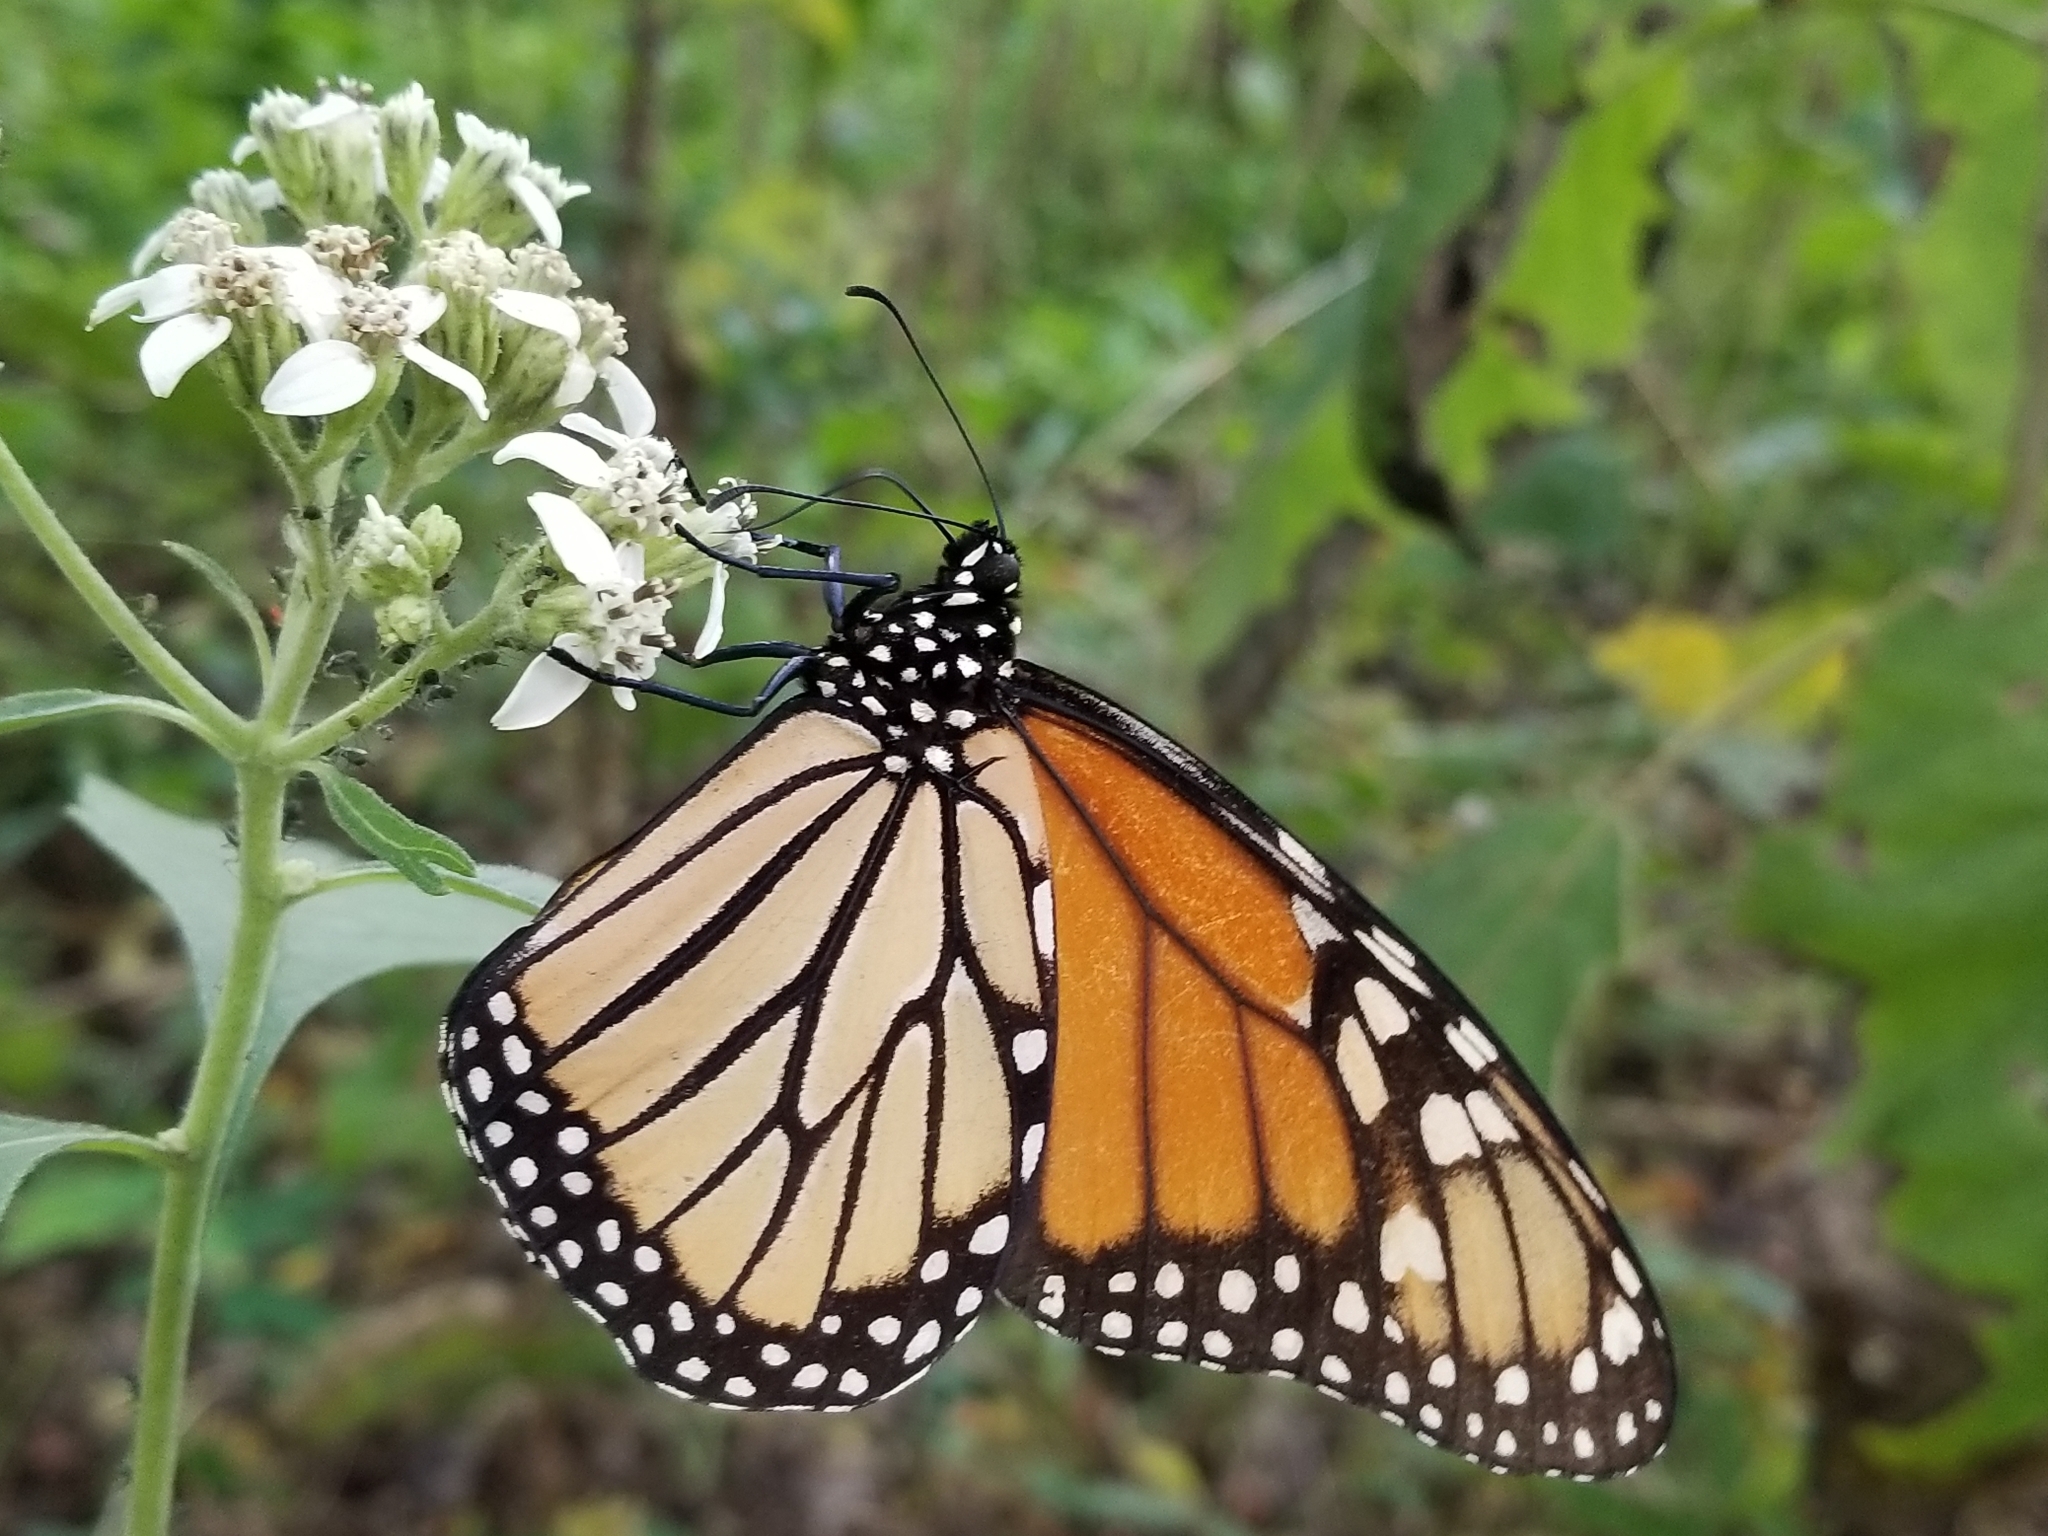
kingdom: Animalia
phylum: Arthropoda
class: Insecta
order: Lepidoptera
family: Nymphalidae
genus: Danaus
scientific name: Danaus plexippus
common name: Monarch
